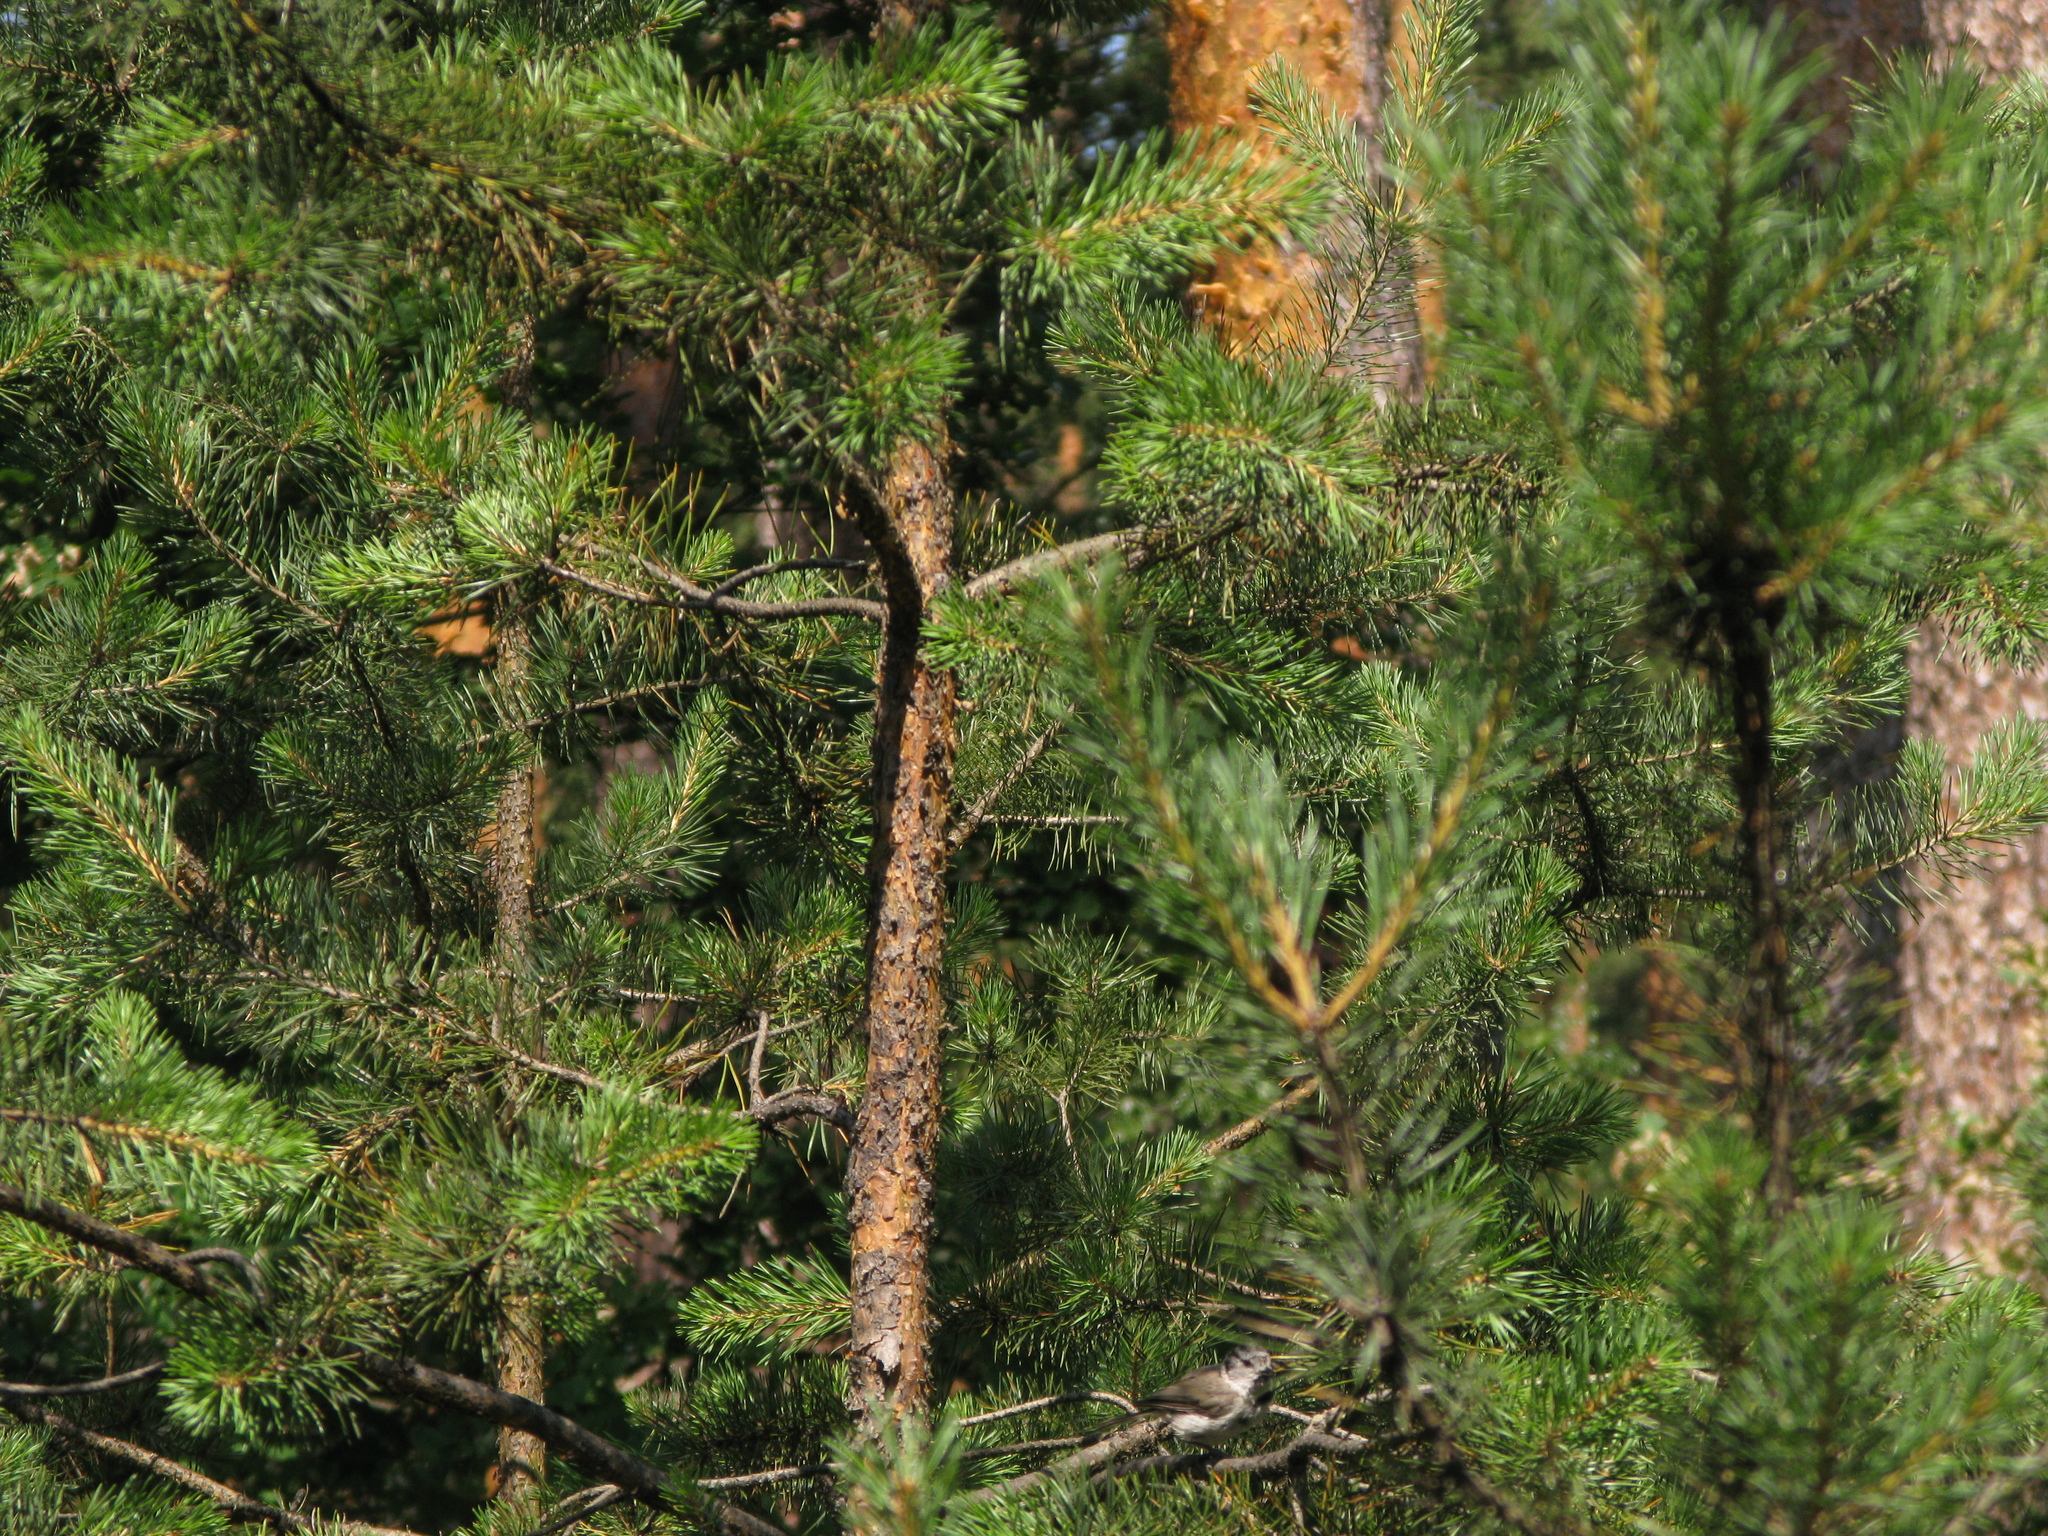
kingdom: Animalia
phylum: Chordata
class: Aves
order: Passeriformes
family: Paridae
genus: Lophophanes
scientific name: Lophophanes cristatus
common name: European crested tit
